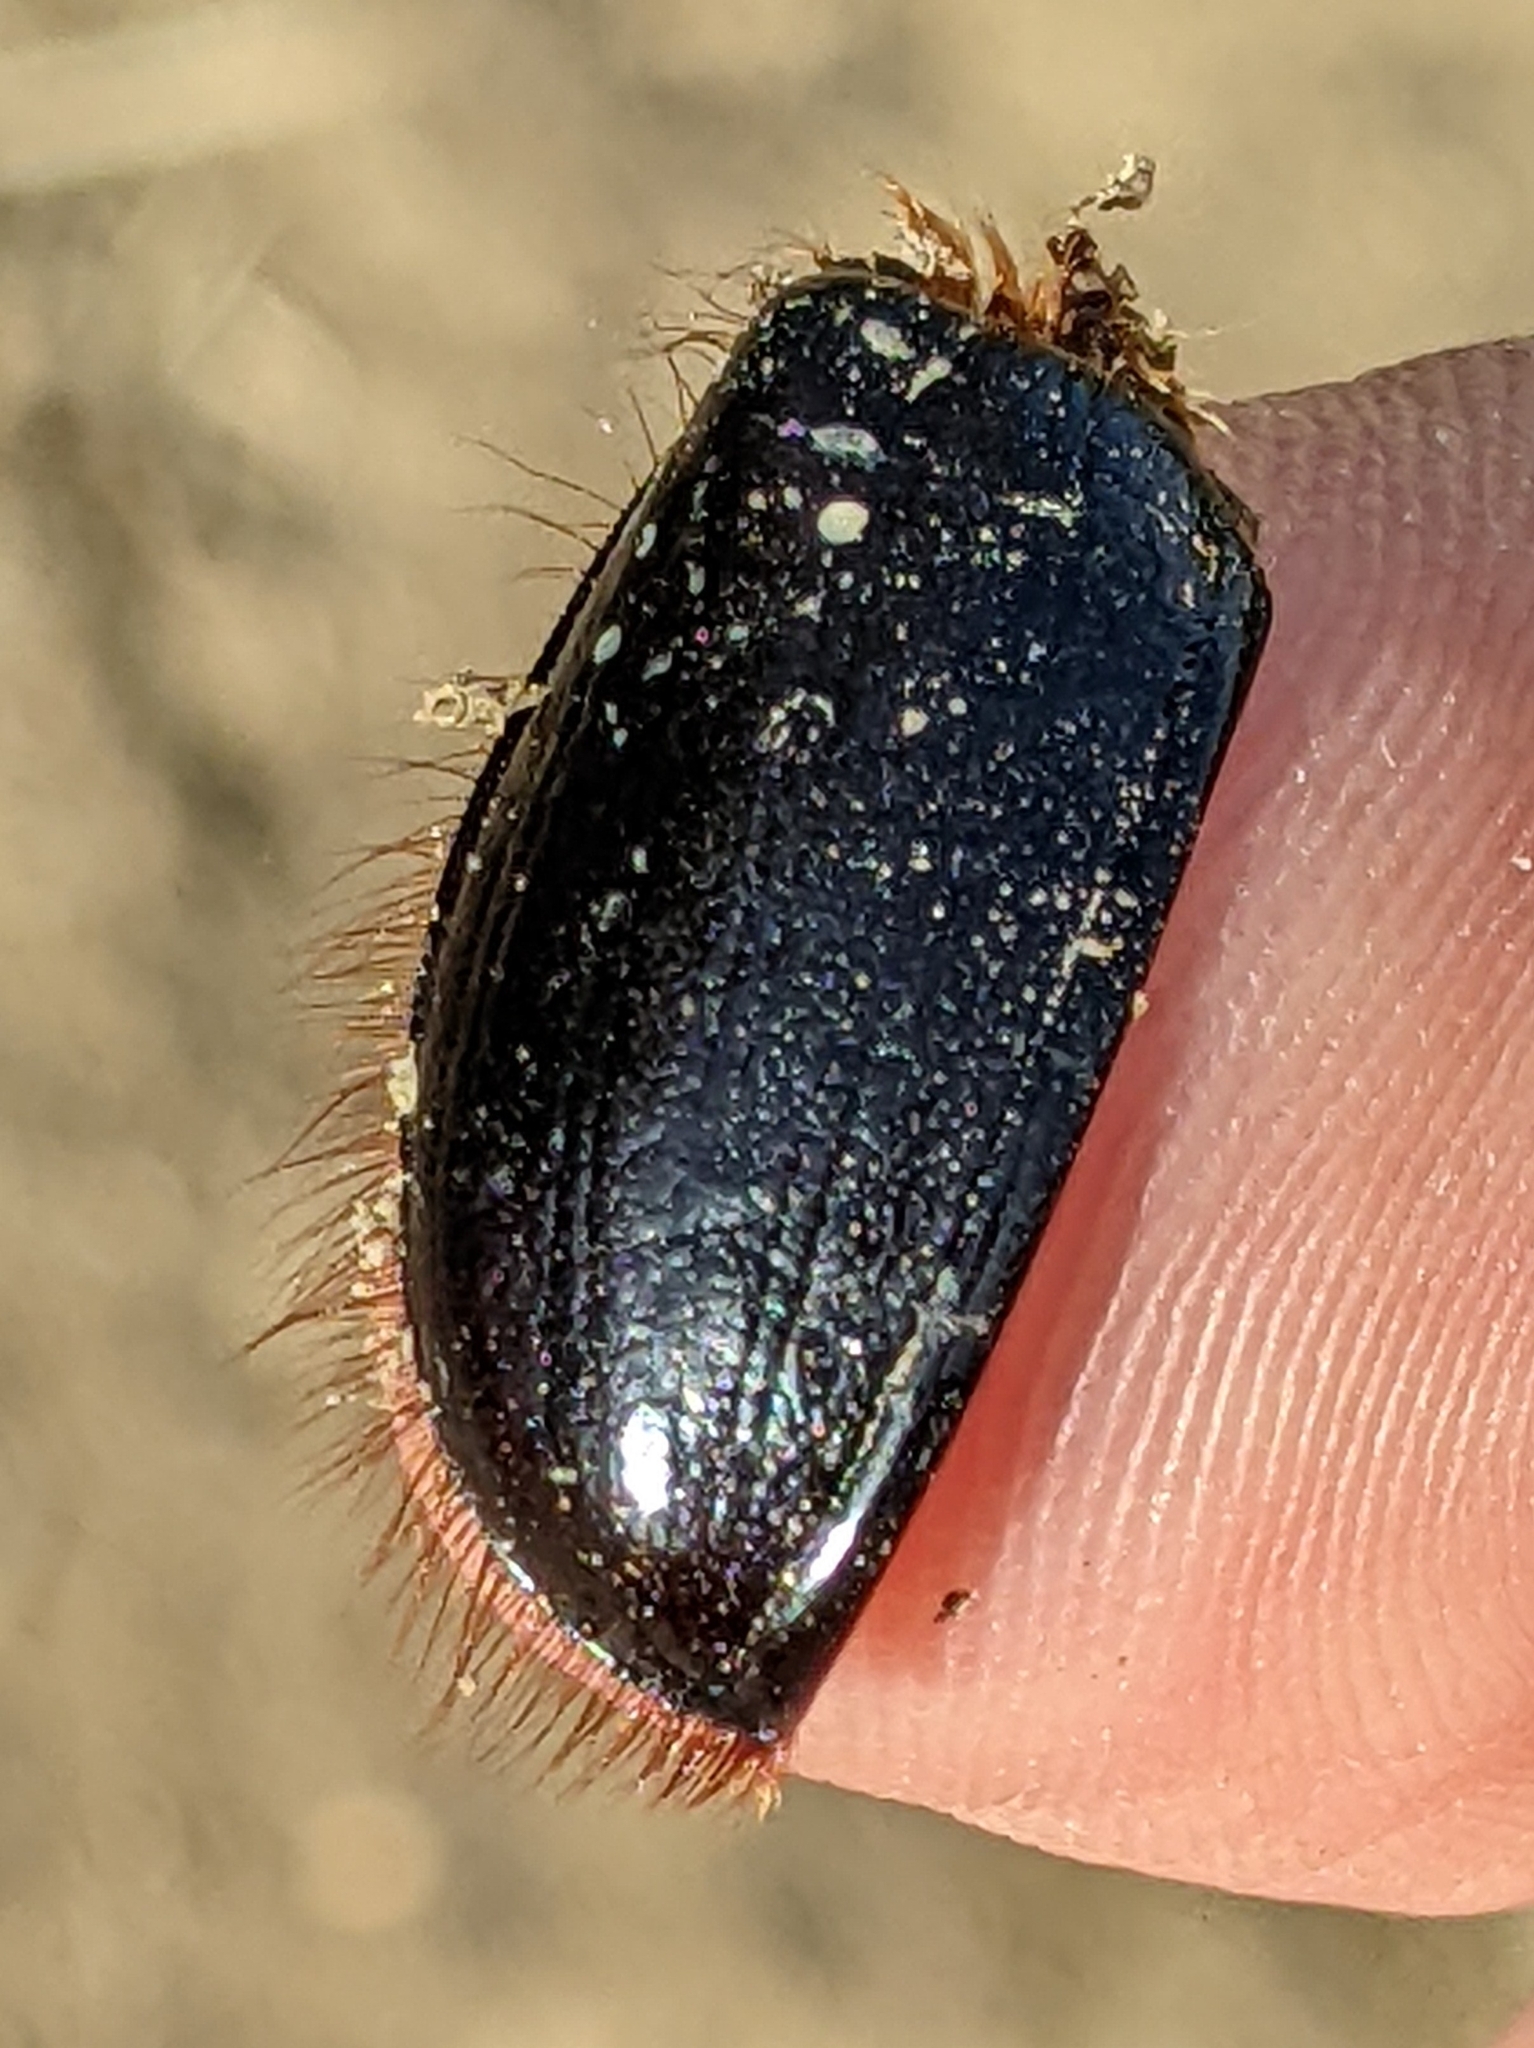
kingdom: Animalia
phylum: Arthropoda
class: Insecta
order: Coleoptera
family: Pleocomidae
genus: Pleocoma
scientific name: Pleocoma behrensi
